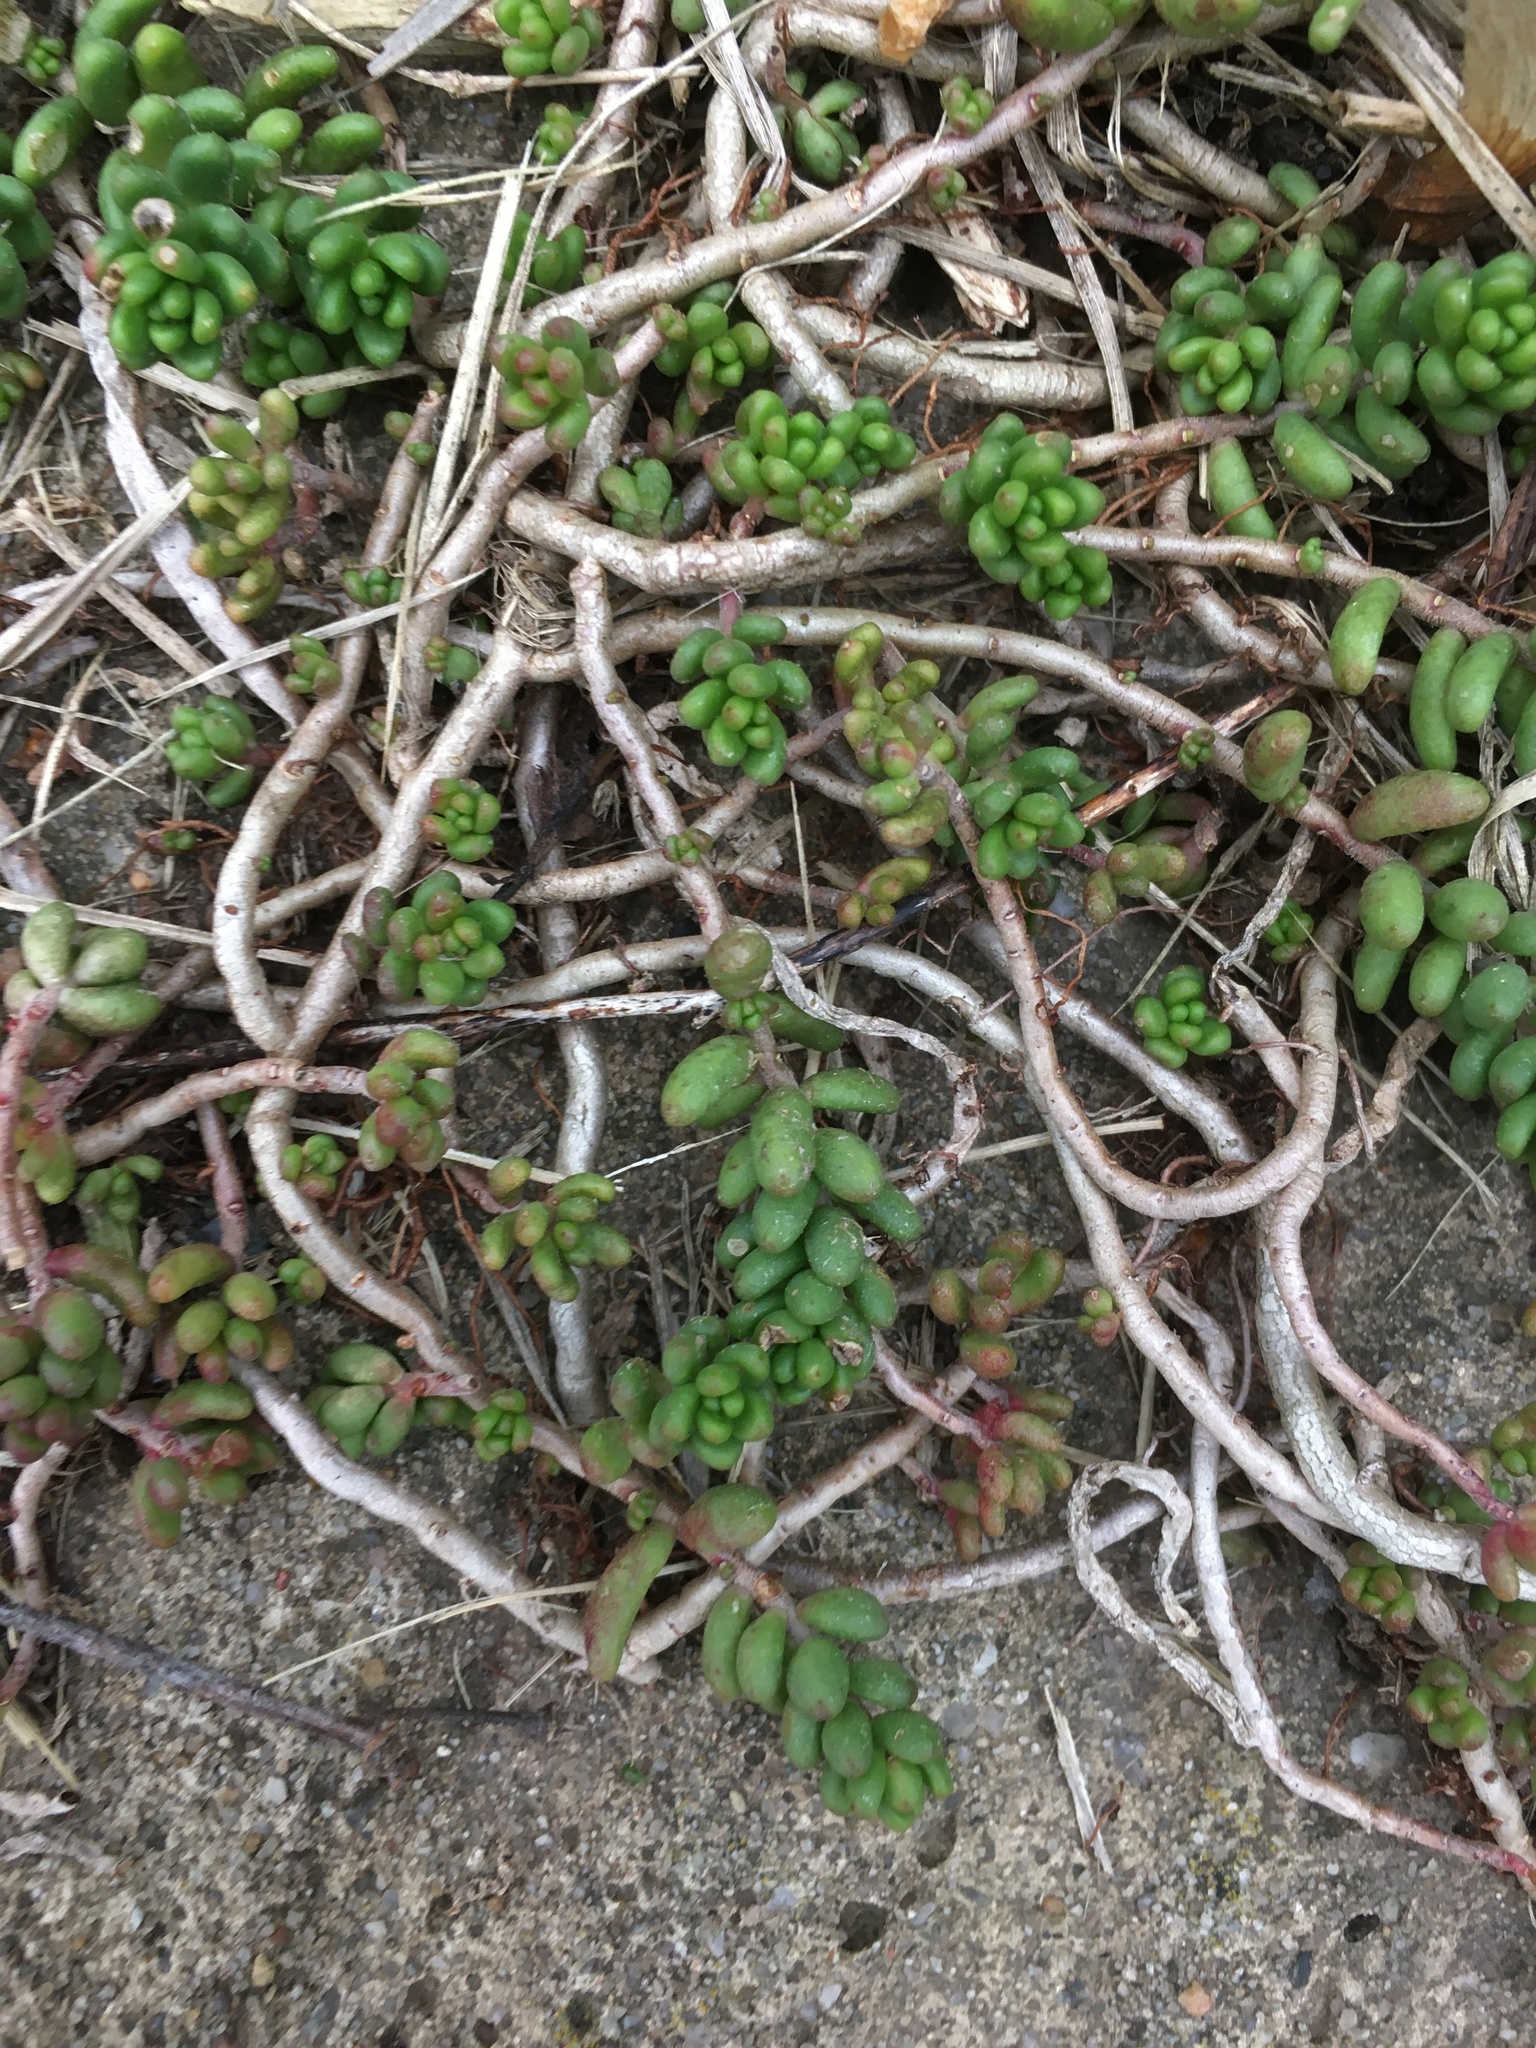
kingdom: Plantae
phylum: Tracheophyta
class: Magnoliopsida
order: Saxifragales
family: Crassulaceae
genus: Sedum
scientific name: Sedum album
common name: White stonecrop
